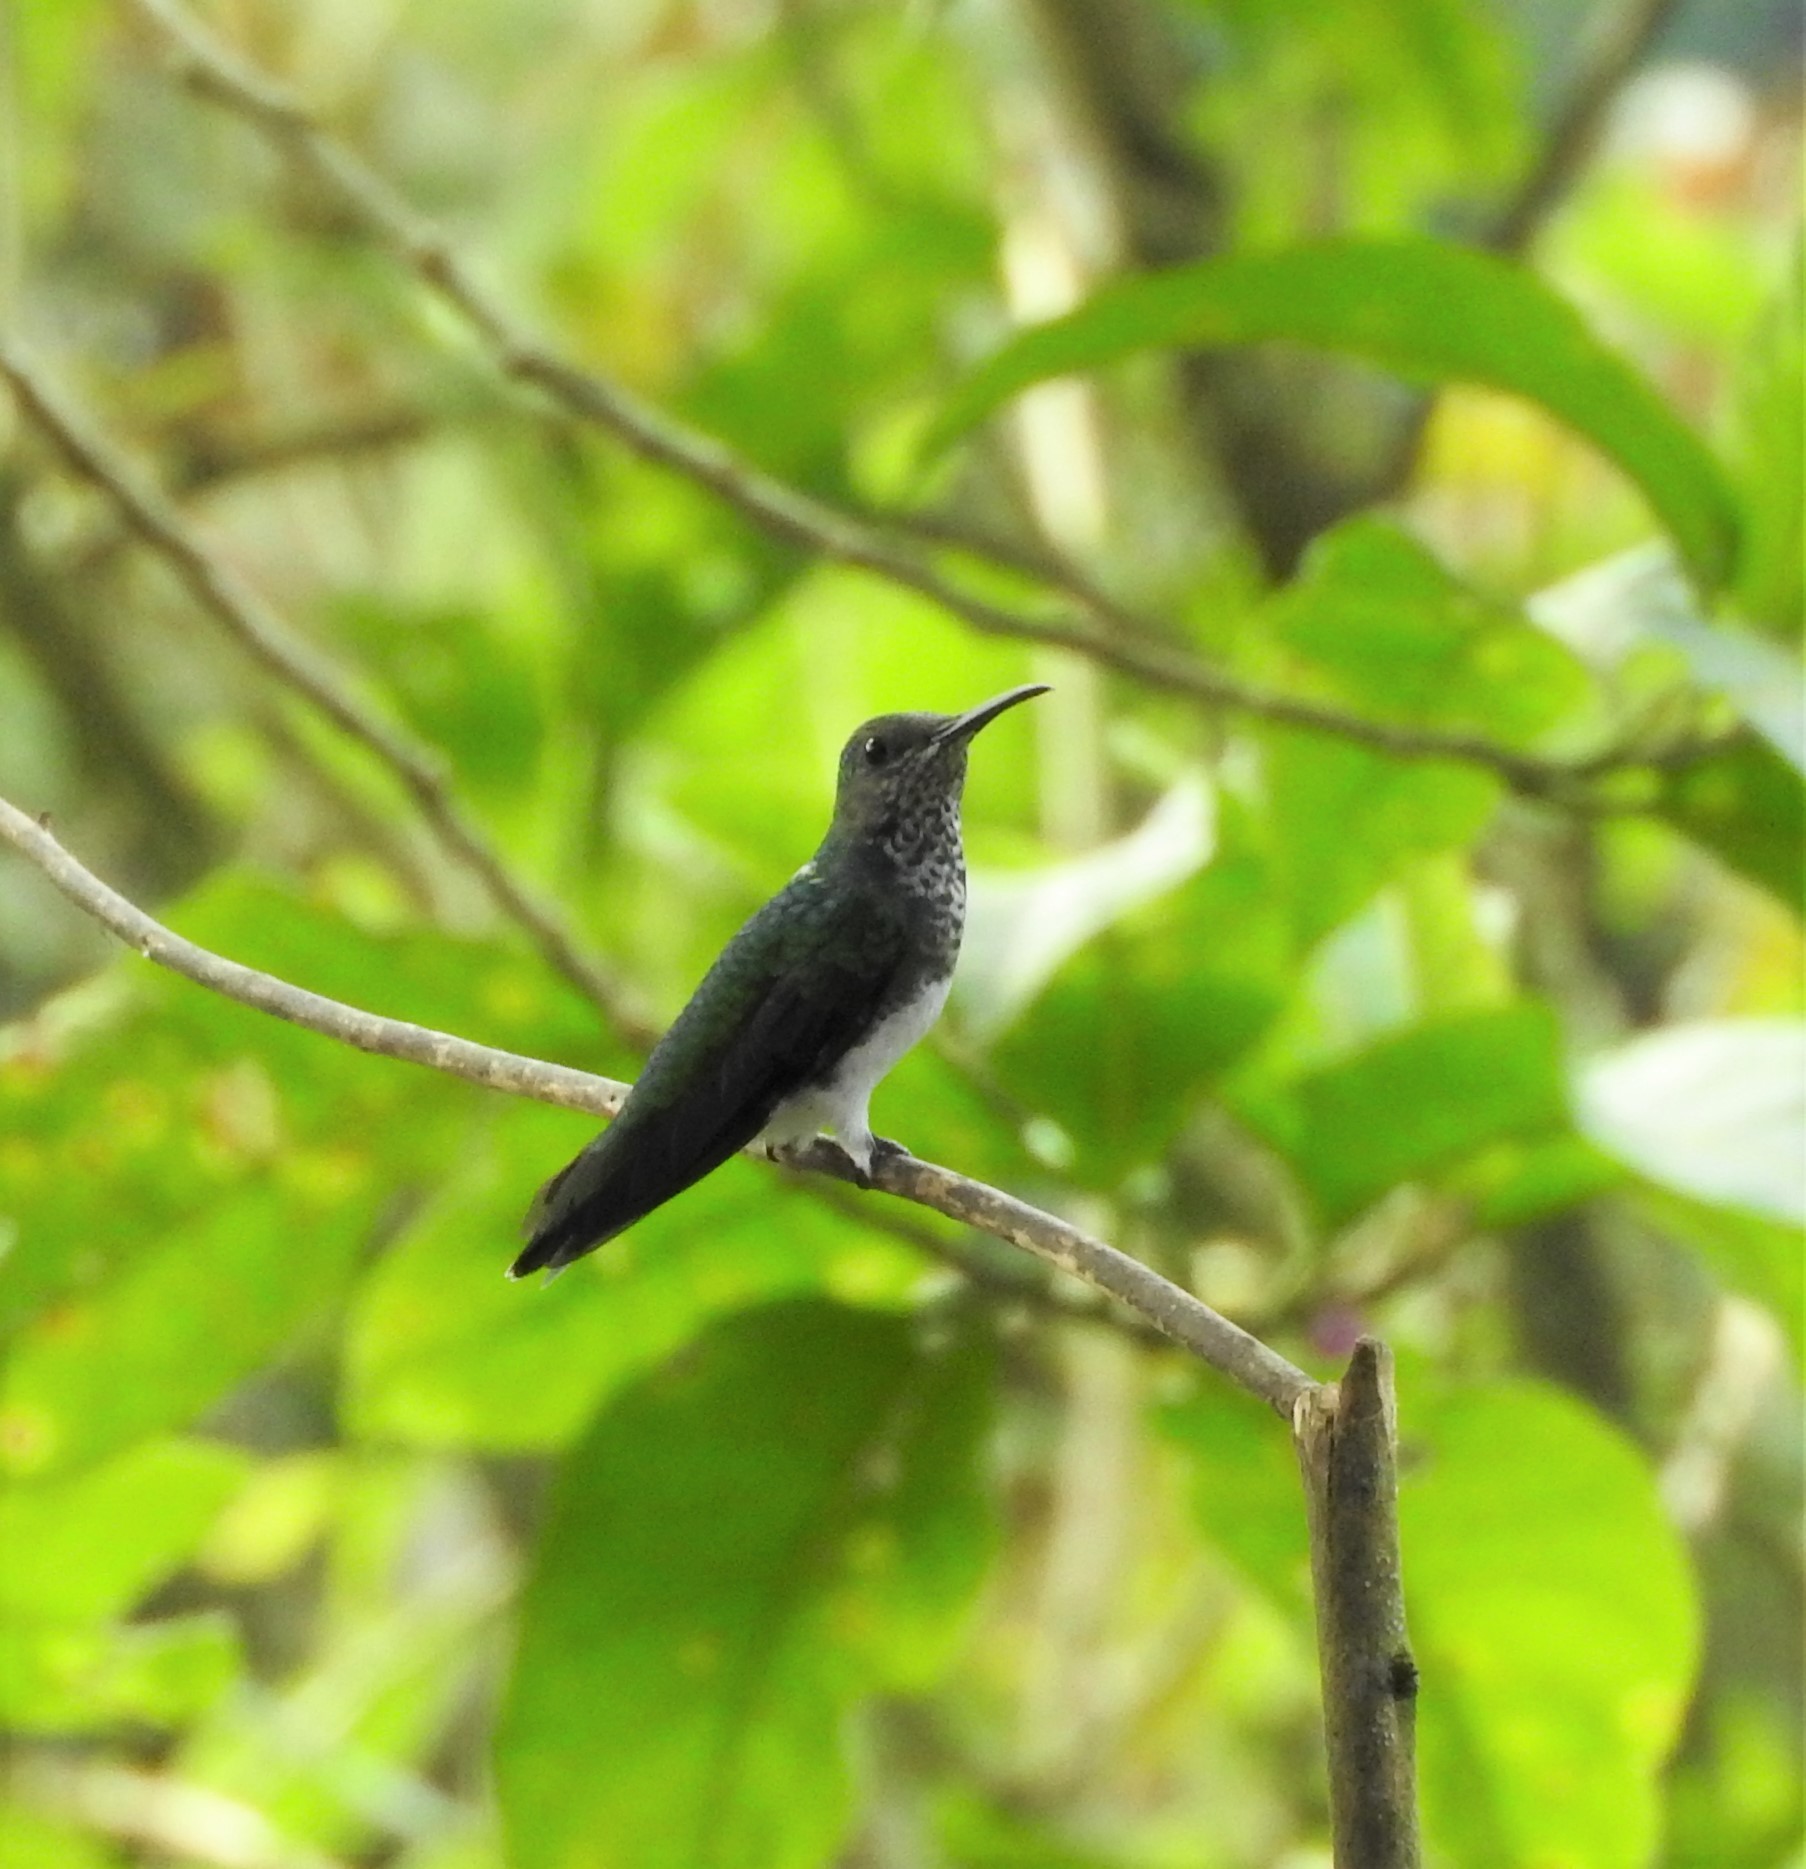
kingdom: Animalia
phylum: Chordata
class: Aves
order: Apodiformes
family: Trochilidae
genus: Florisuga
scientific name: Florisuga mellivora
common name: White-necked jacobin
